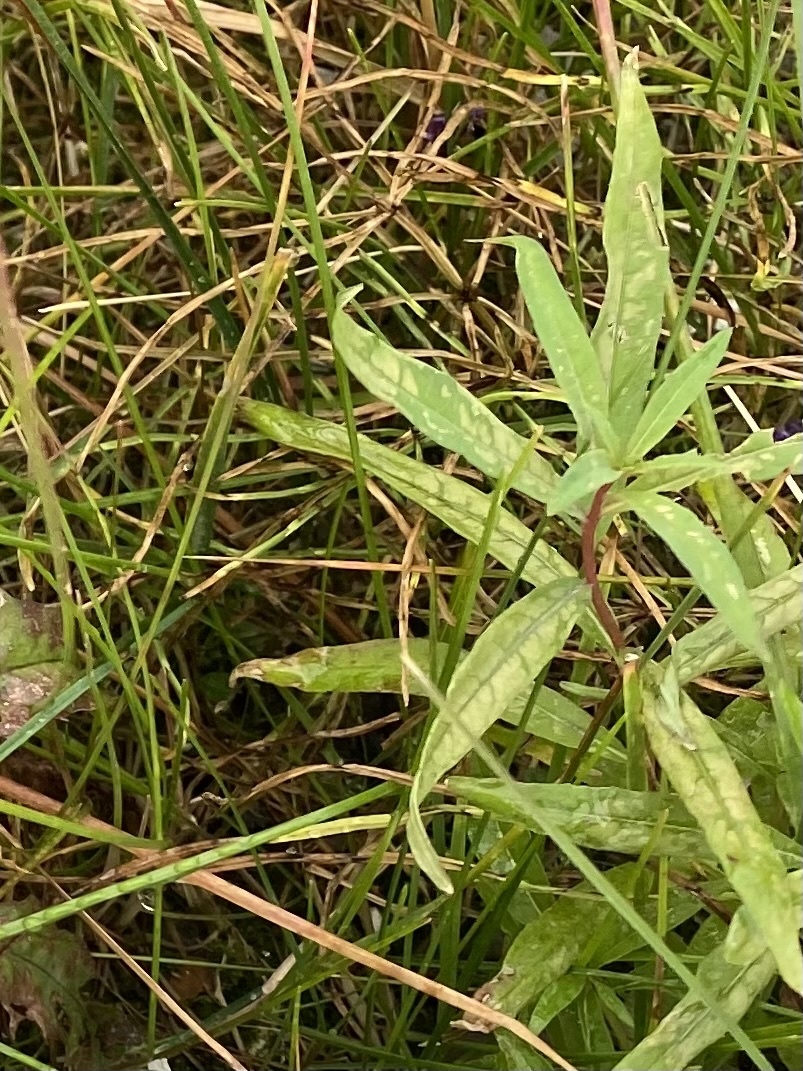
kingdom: Plantae
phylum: Tracheophyta
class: Magnoliopsida
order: Myrtales
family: Onagraceae
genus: Chamaenerion
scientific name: Chamaenerion angustifolium
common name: Fireweed
